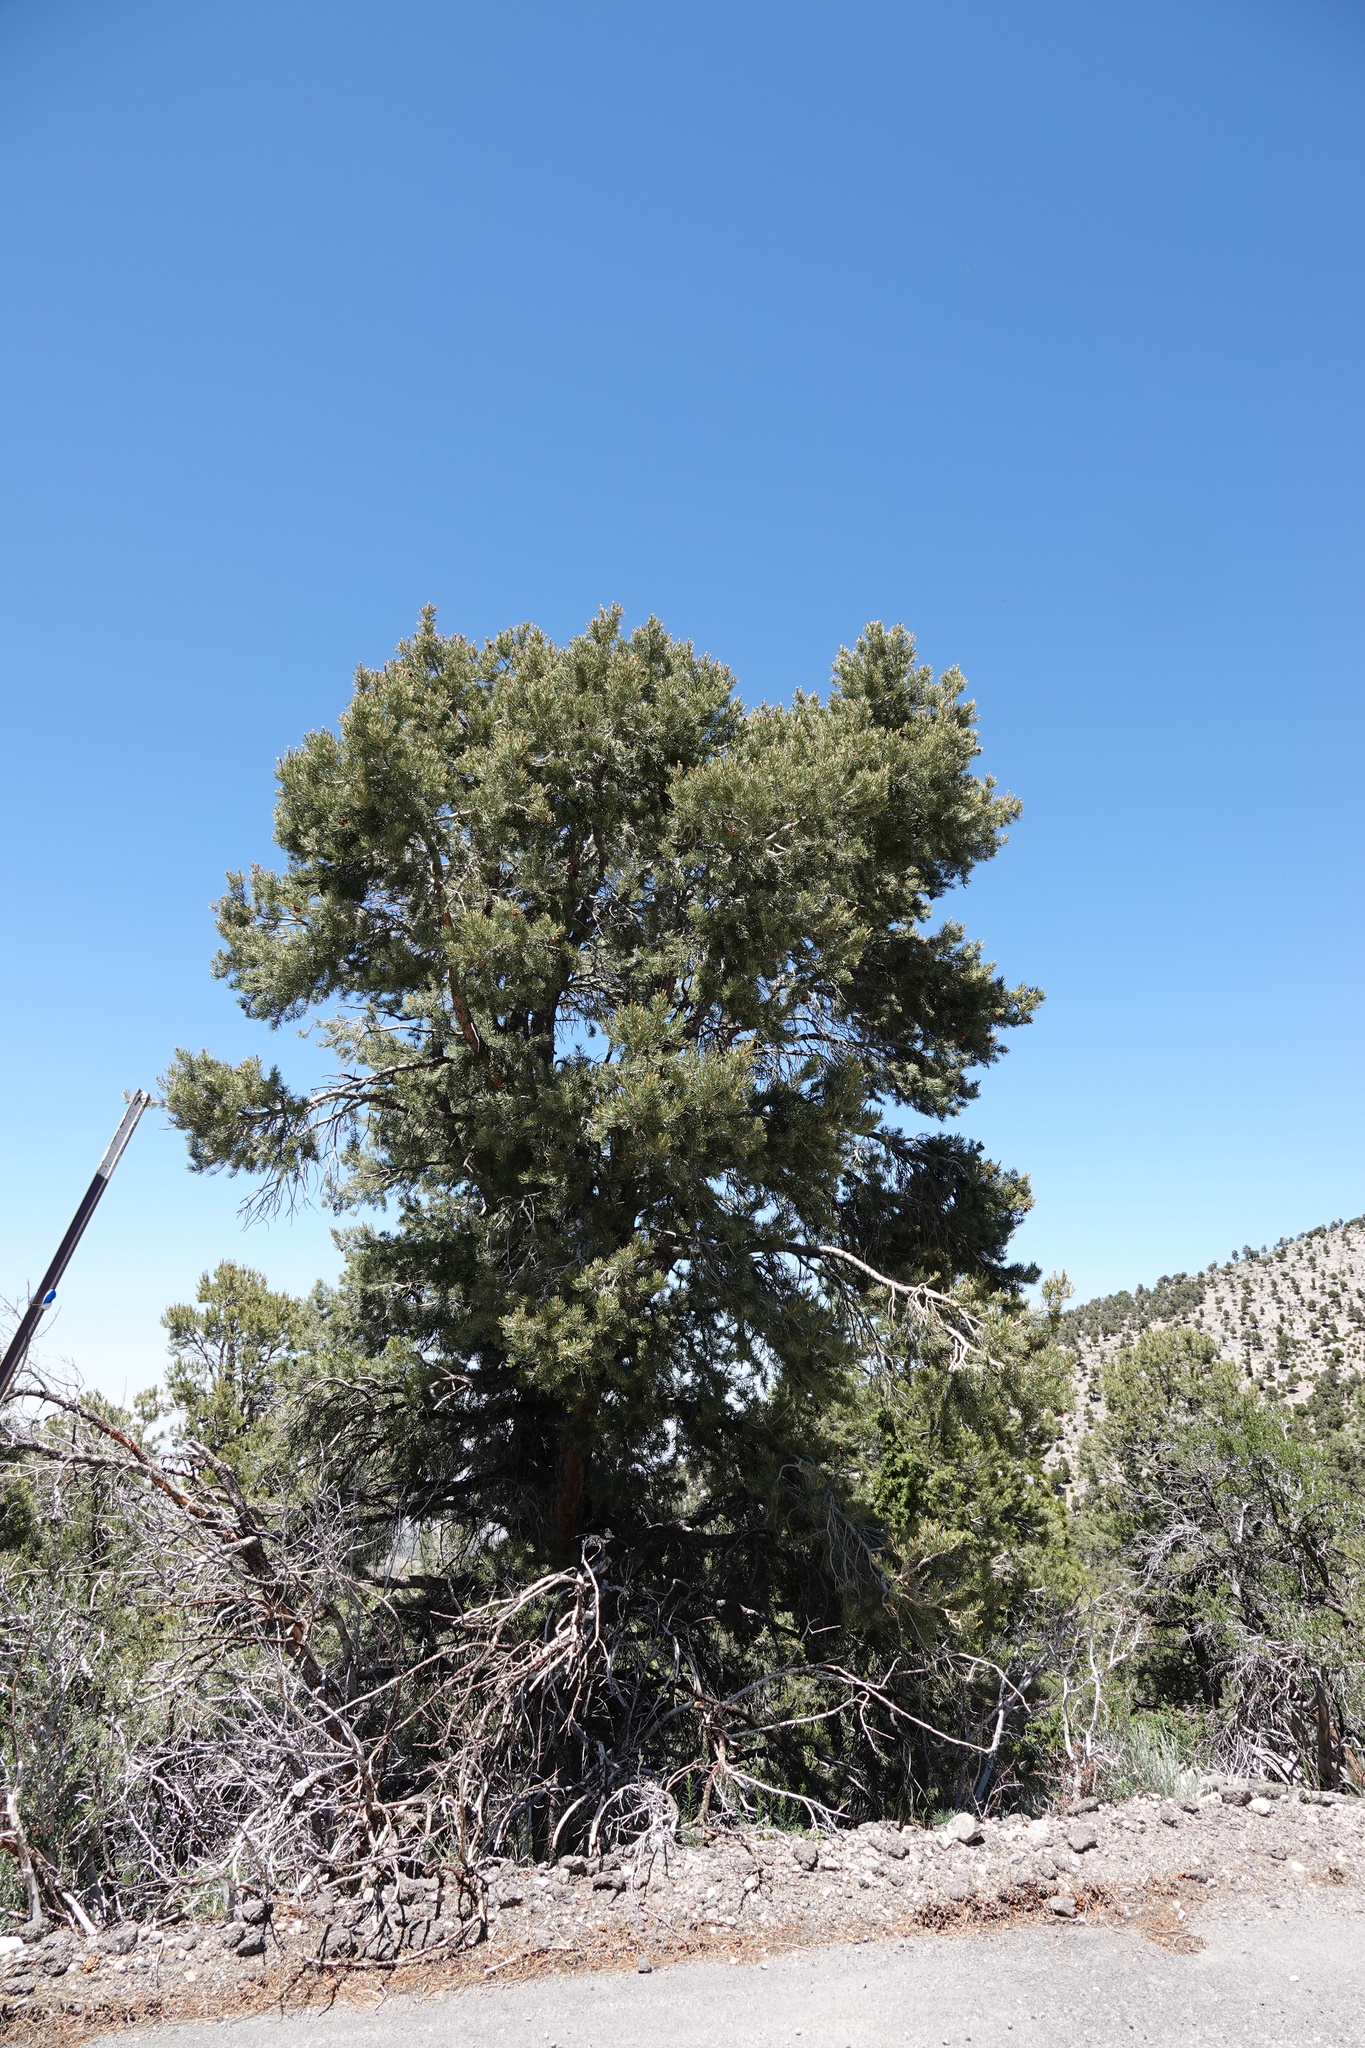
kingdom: Plantae
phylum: Tracheophyta
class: Pinopsida
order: Pinales
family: Pinaceae
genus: Pinus
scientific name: Pinus monophylla
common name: One-leaved nut pine
